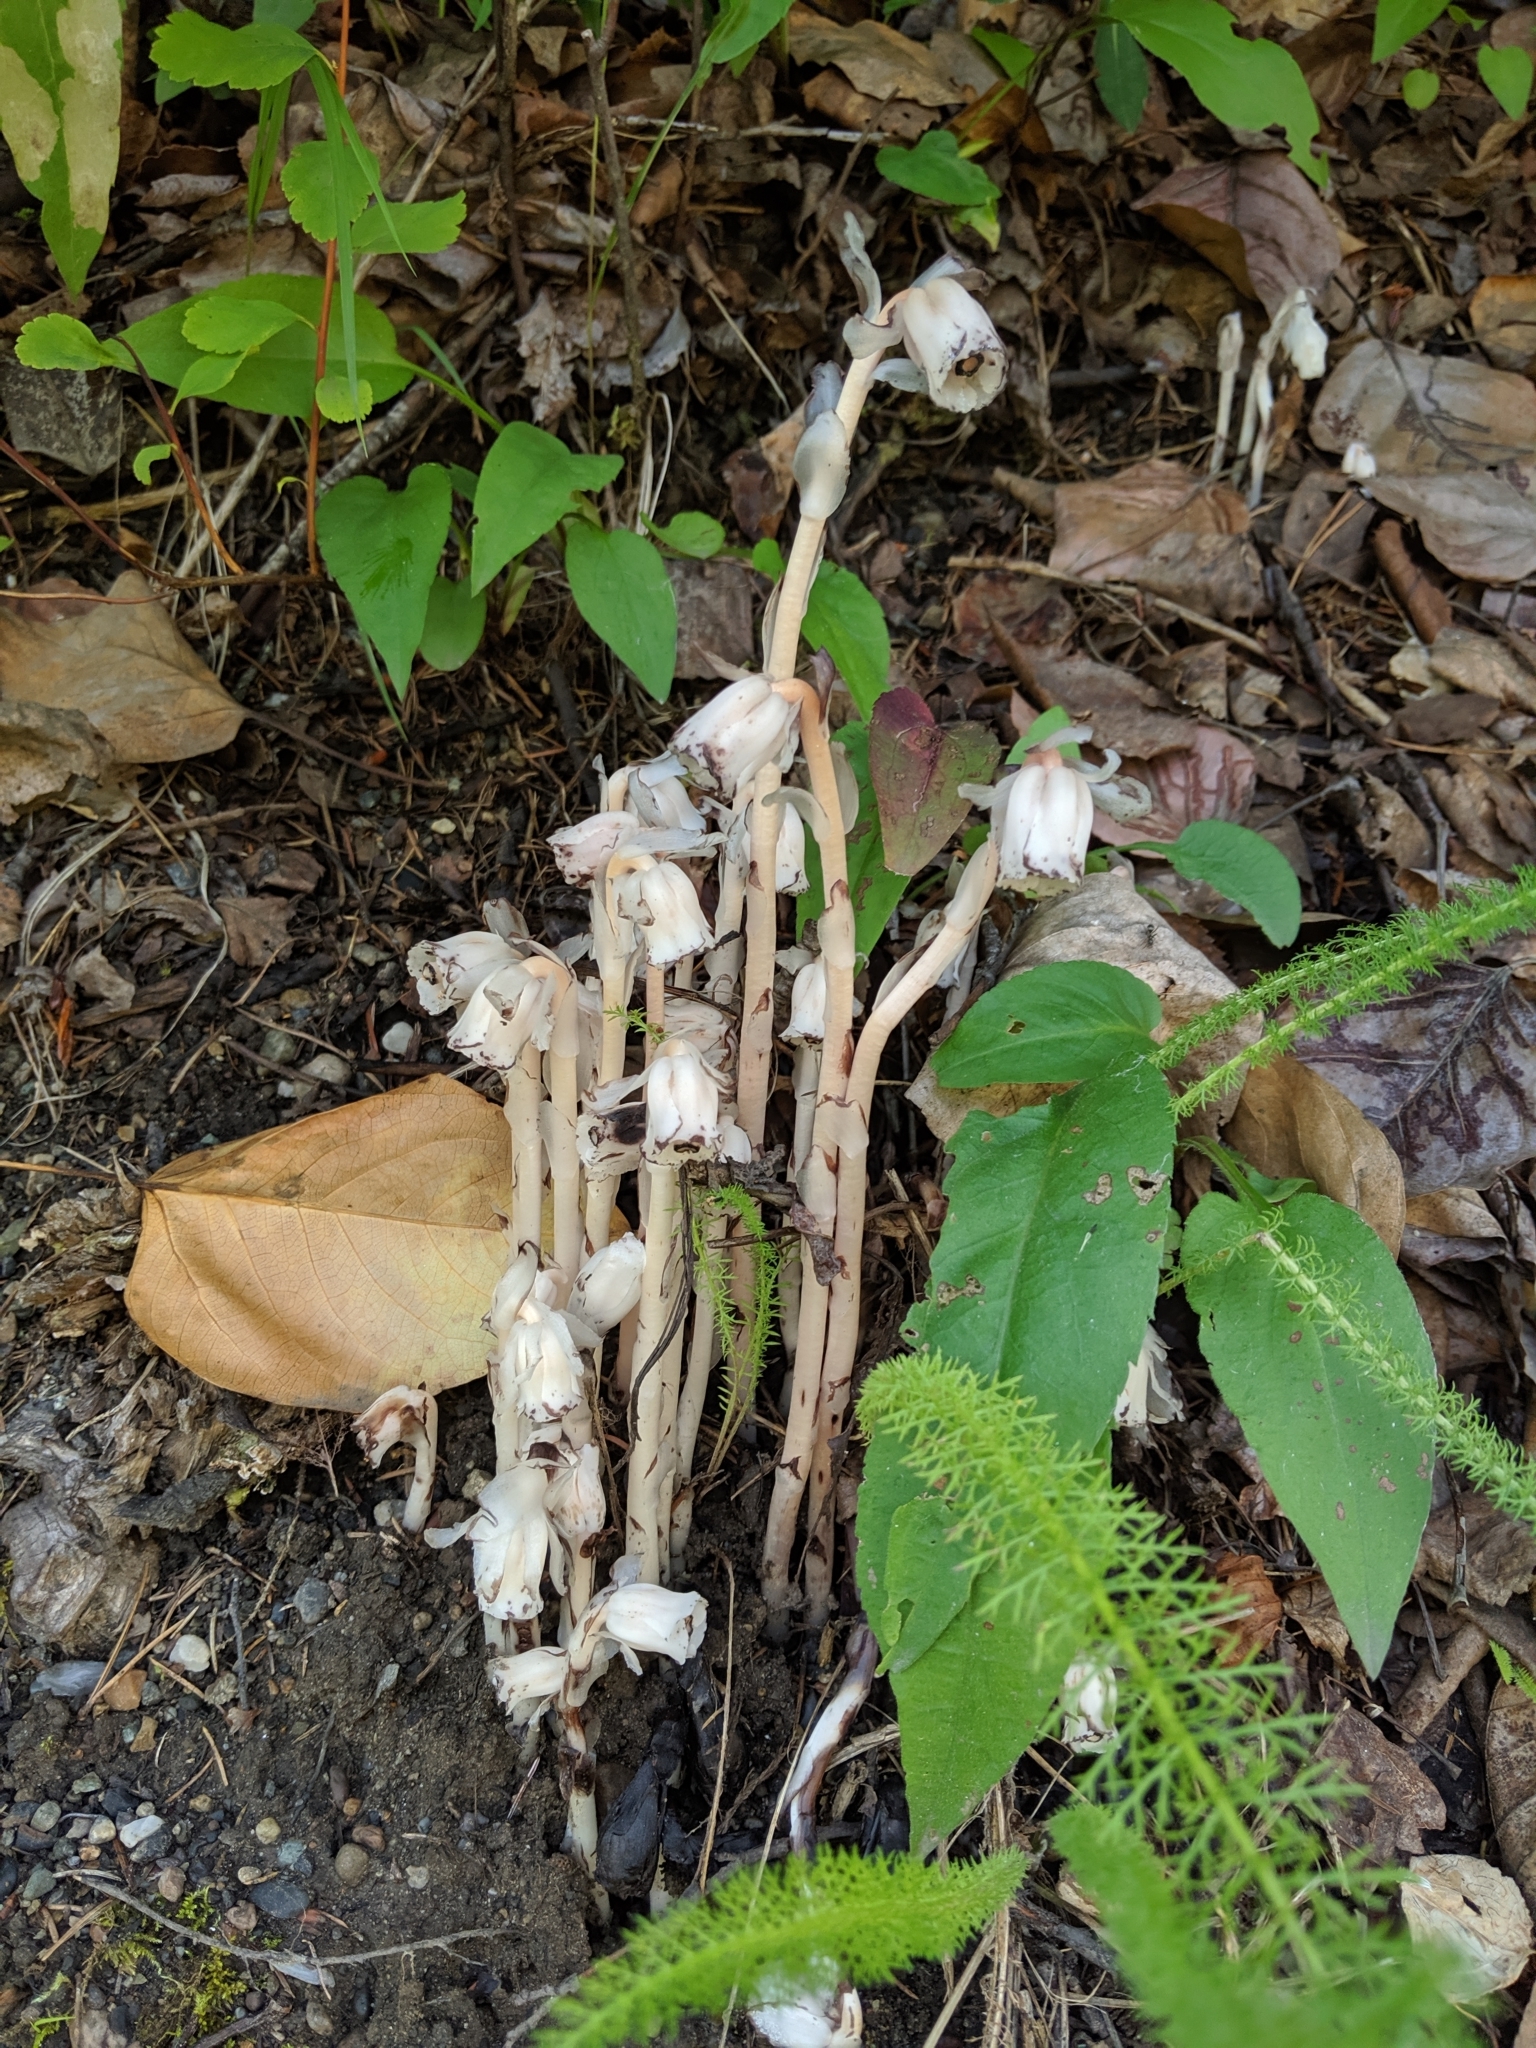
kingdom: Plantae
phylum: Tracheophyta
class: Magnoliopsida
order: Ericales
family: Ericaceae
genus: Monotropa
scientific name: Monotropa uniflora
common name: Convulsion root
